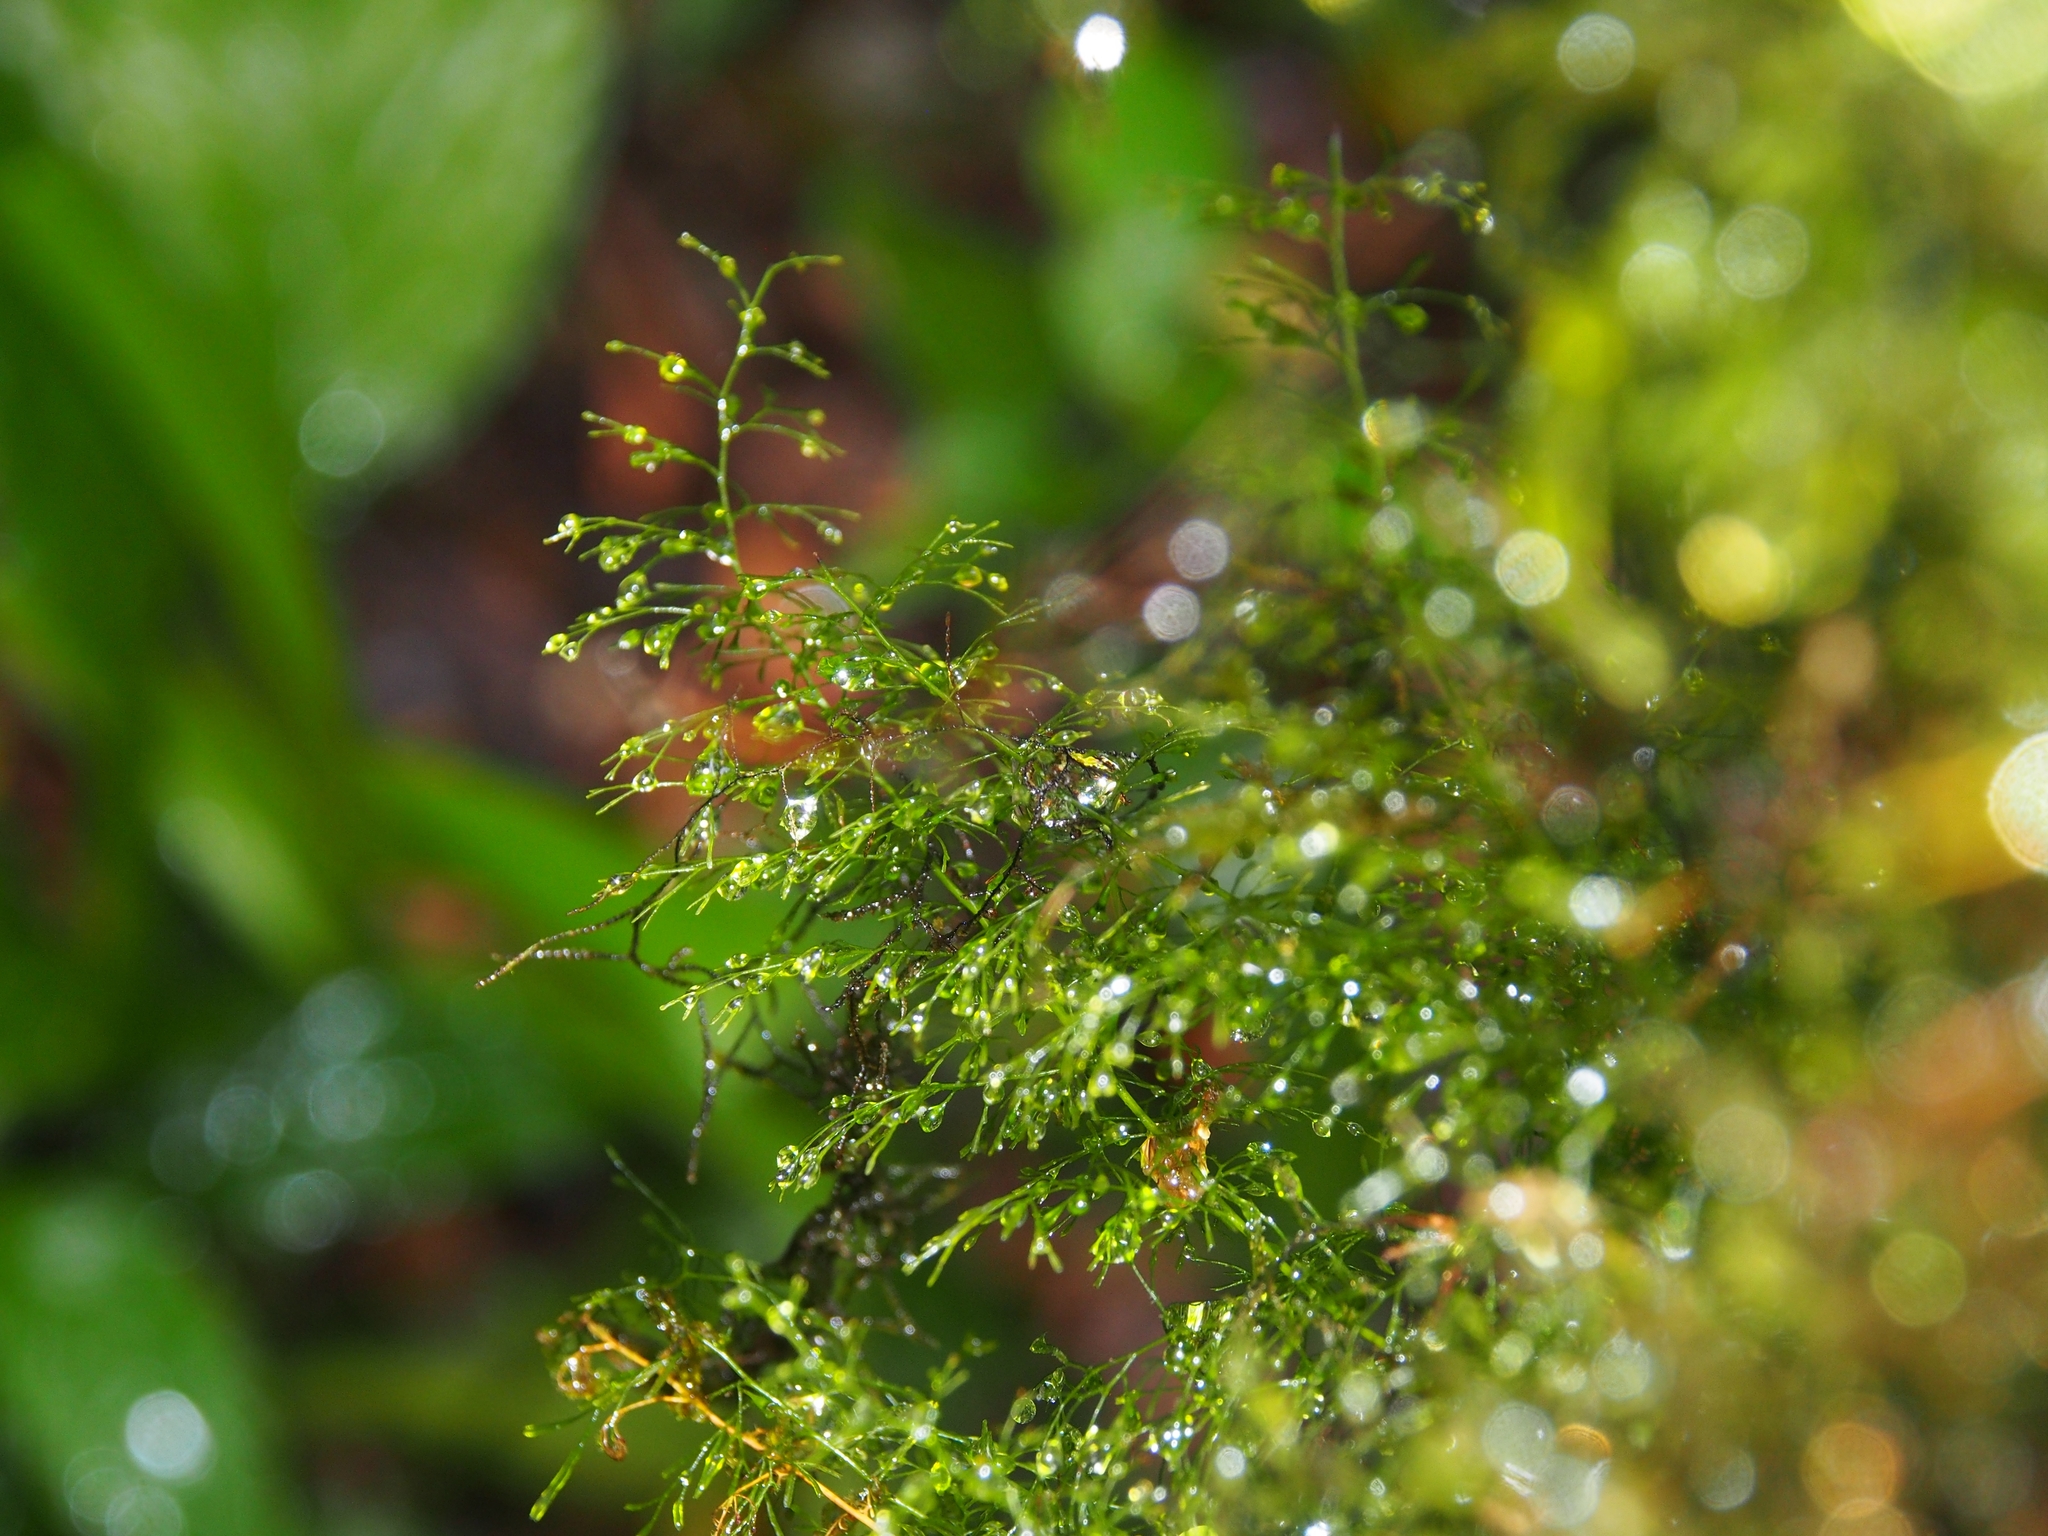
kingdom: Plantae
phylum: Tracheophyta
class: Polypodiopsida
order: Hymenophyllales
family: Hymenophyllaceae
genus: Polyphlebium
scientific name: Polyphlebium capillaceum
